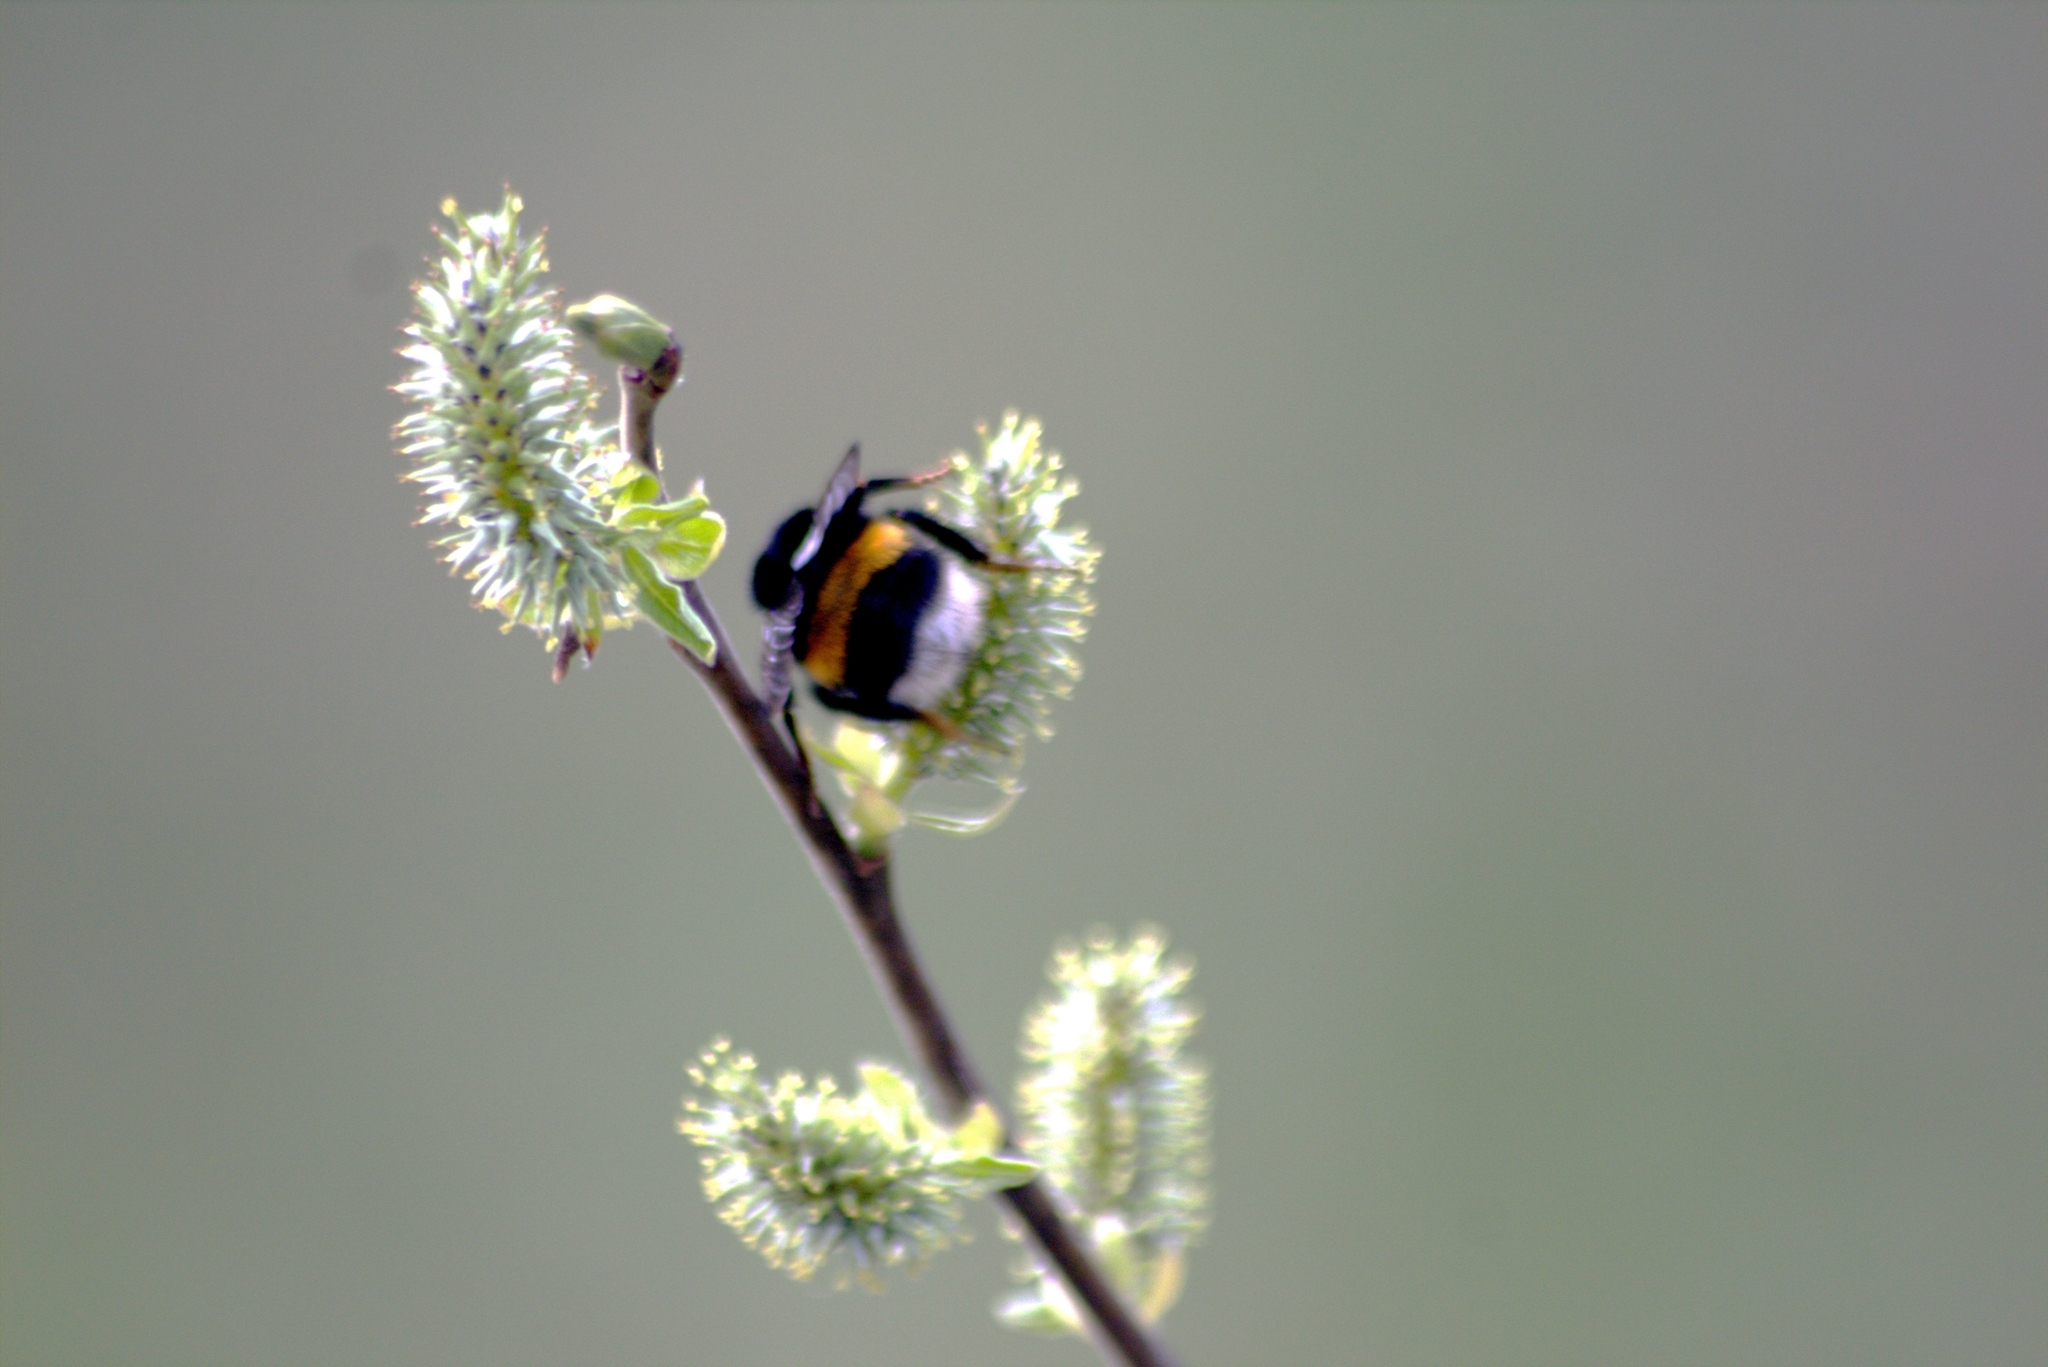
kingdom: Animalia
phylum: Arthropoda
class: Insecta
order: Hymenoptera
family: Apidae
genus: Bombus
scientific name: Bombus
